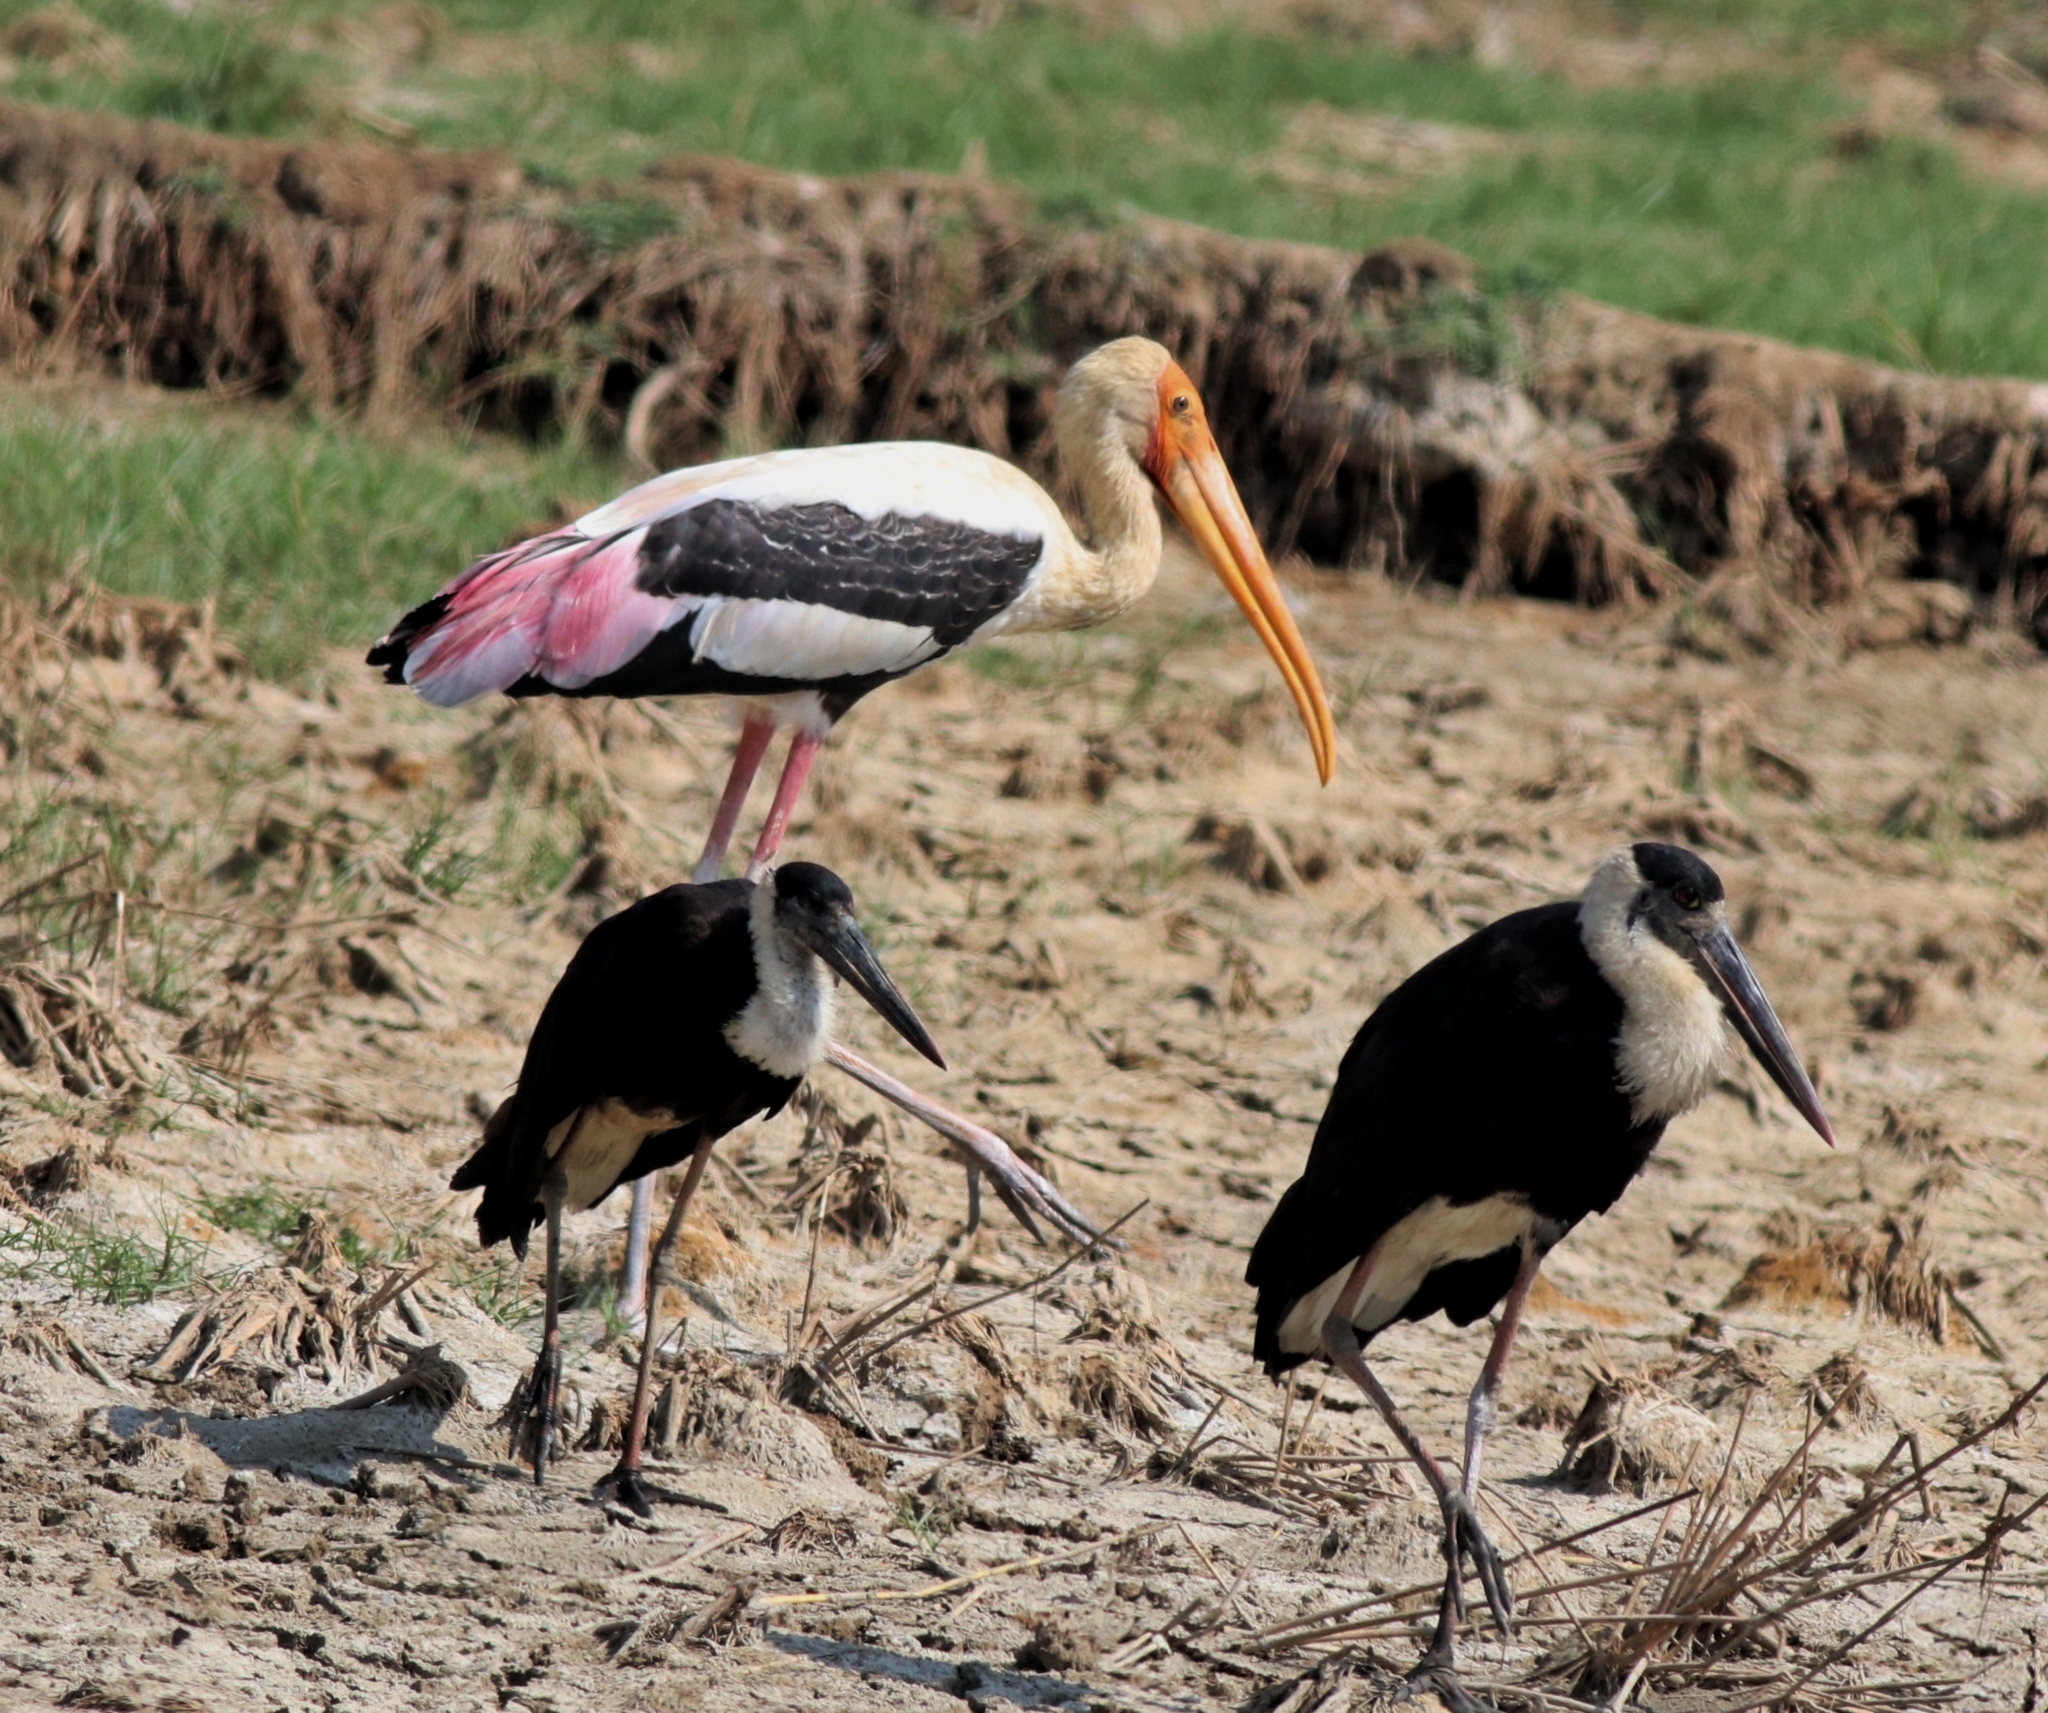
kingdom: Animalia
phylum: Chordata
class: Aves
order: Ciconiiformes
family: Ciconiidae
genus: Ciconia
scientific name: Ciconia episcopus
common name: Woolly-necked stork
